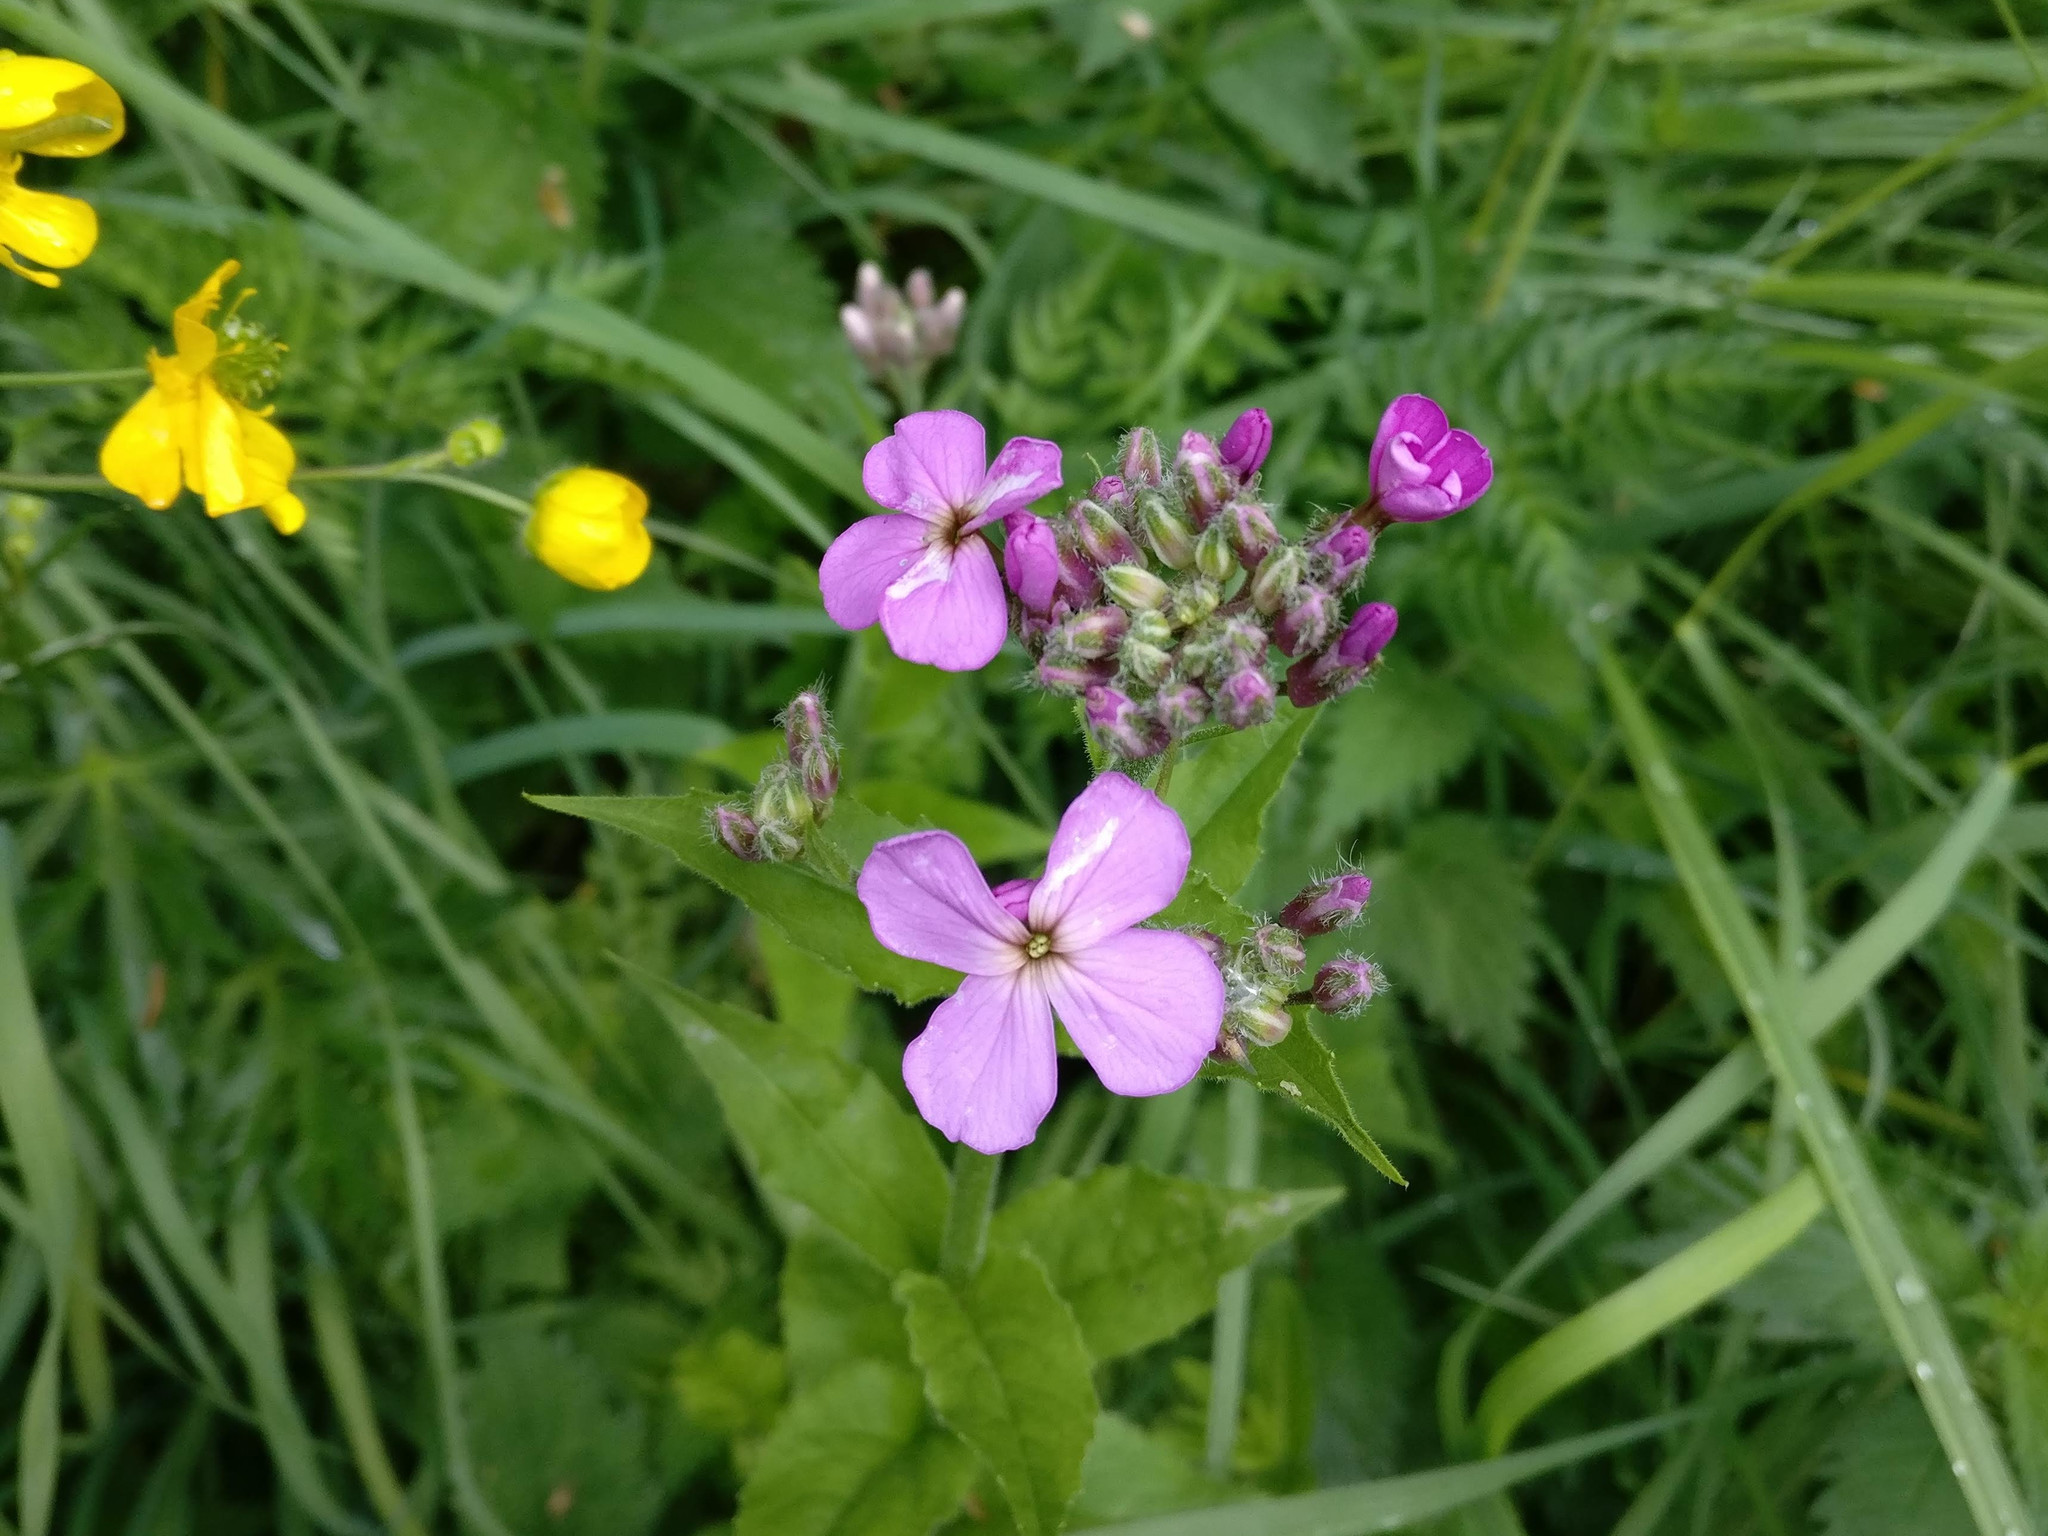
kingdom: Plantae
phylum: Tracheophyta
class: Magnoliopsida
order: Brassicales
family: Brassicaceae
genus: Hesperis
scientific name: Hesperis matronalis
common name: Dame's-violet
